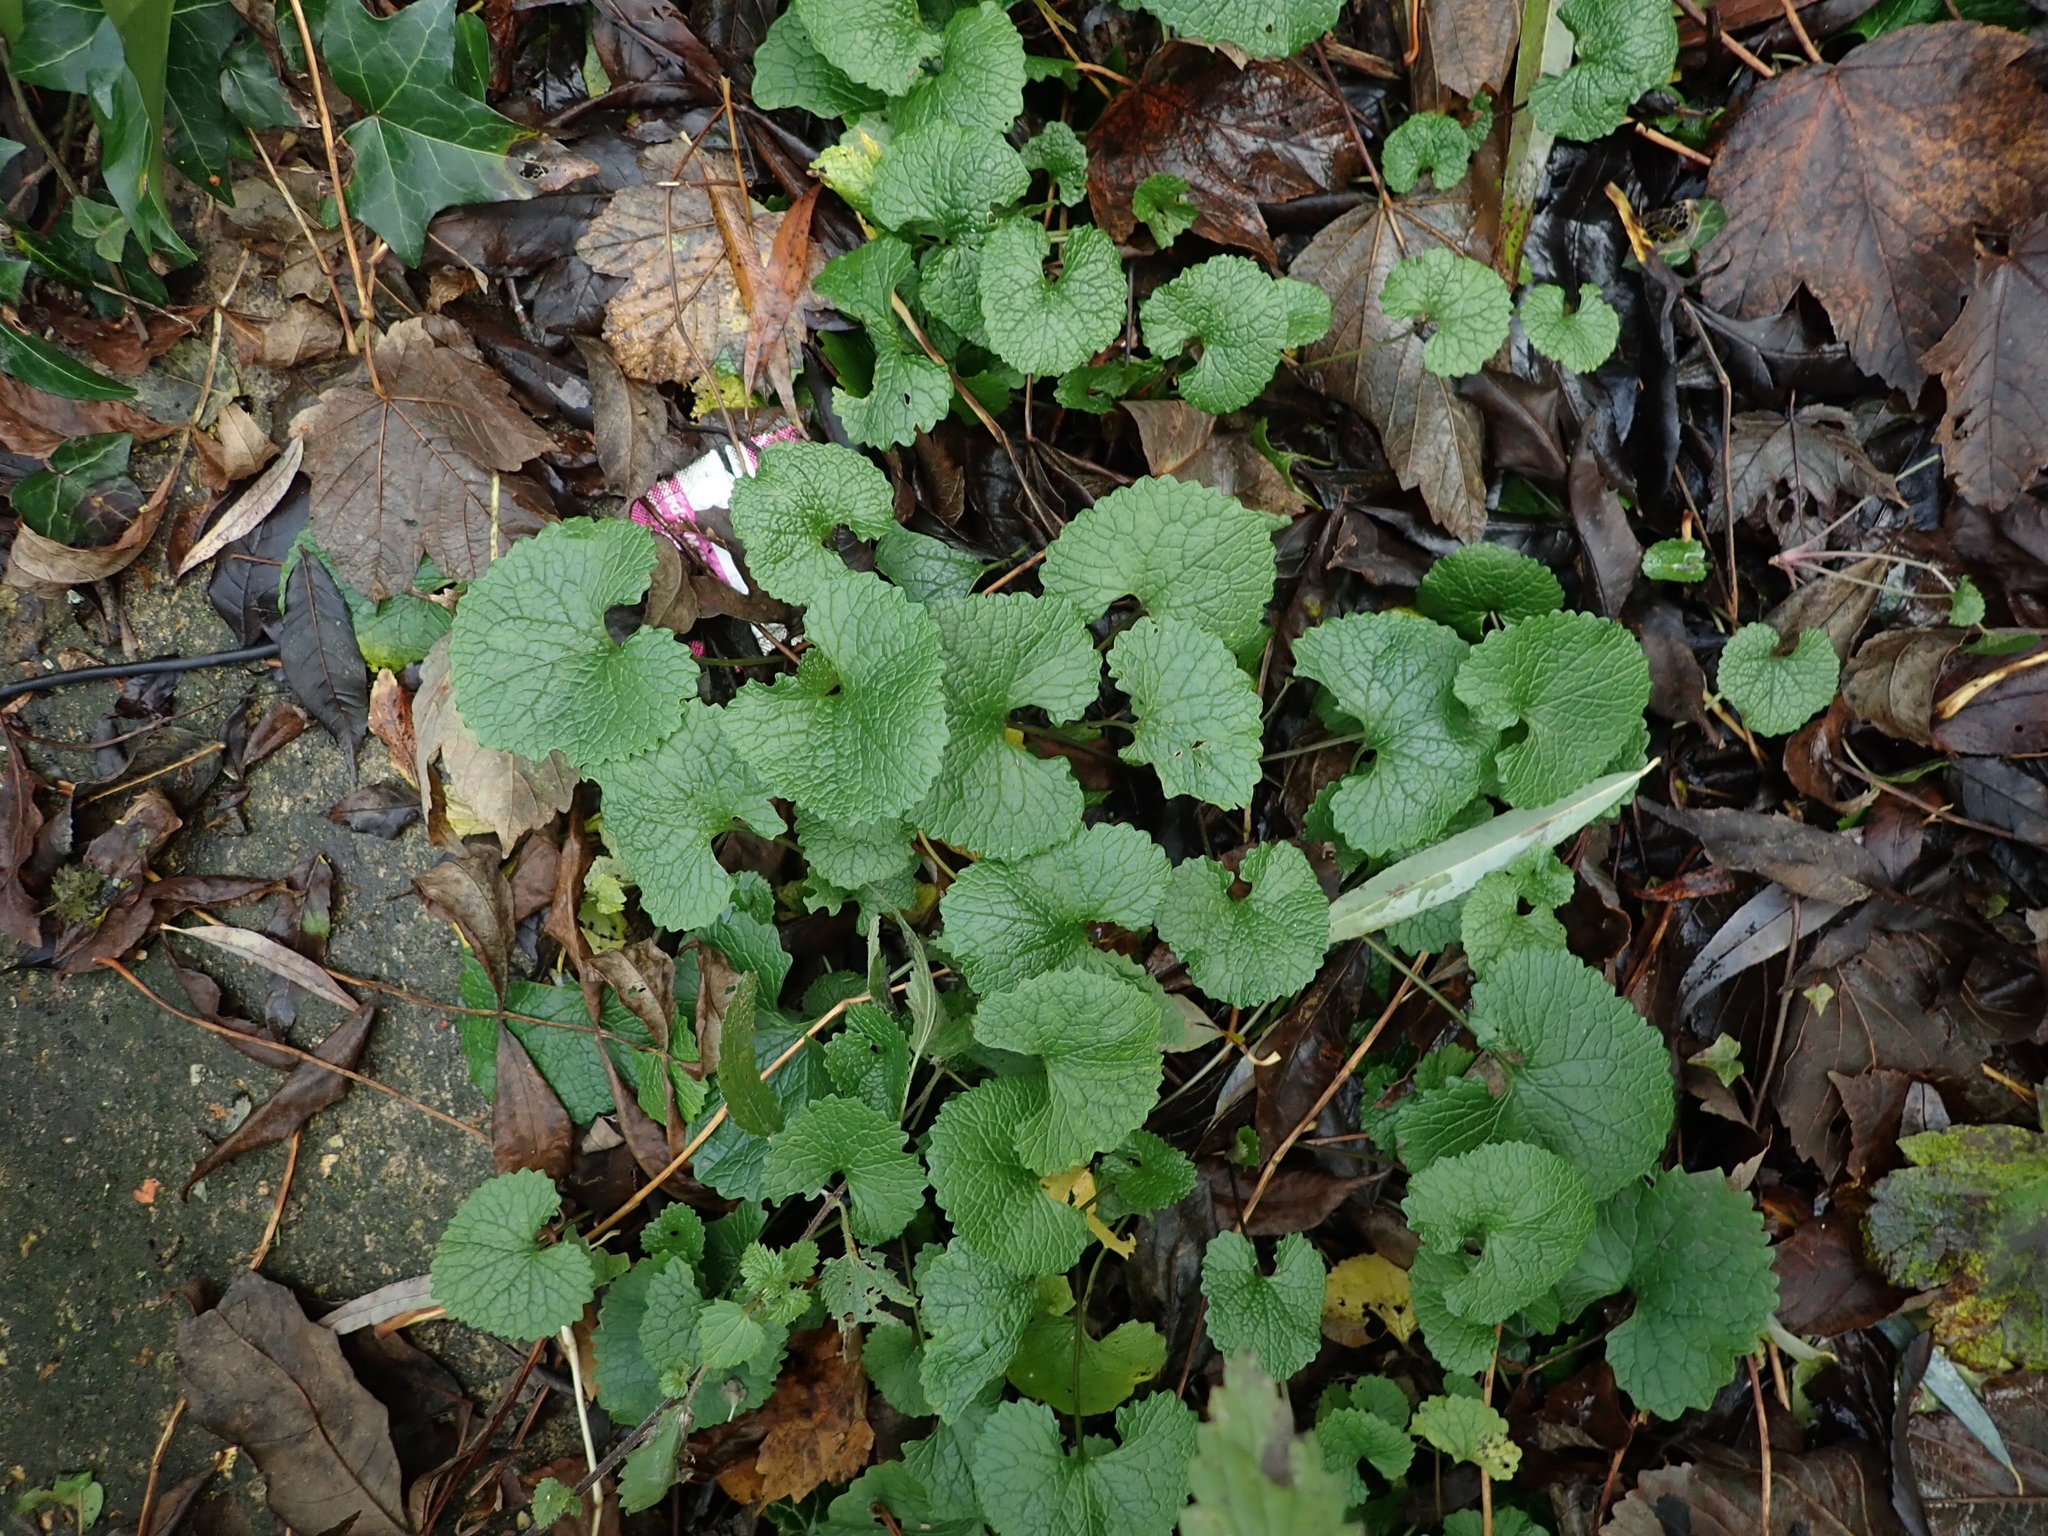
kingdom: Plantae
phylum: Tracheophyta
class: Magnoliopsida
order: Brassicales
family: Brassicaceae
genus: Alliaria
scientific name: Alliaria petiolata
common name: Garlic mustard
